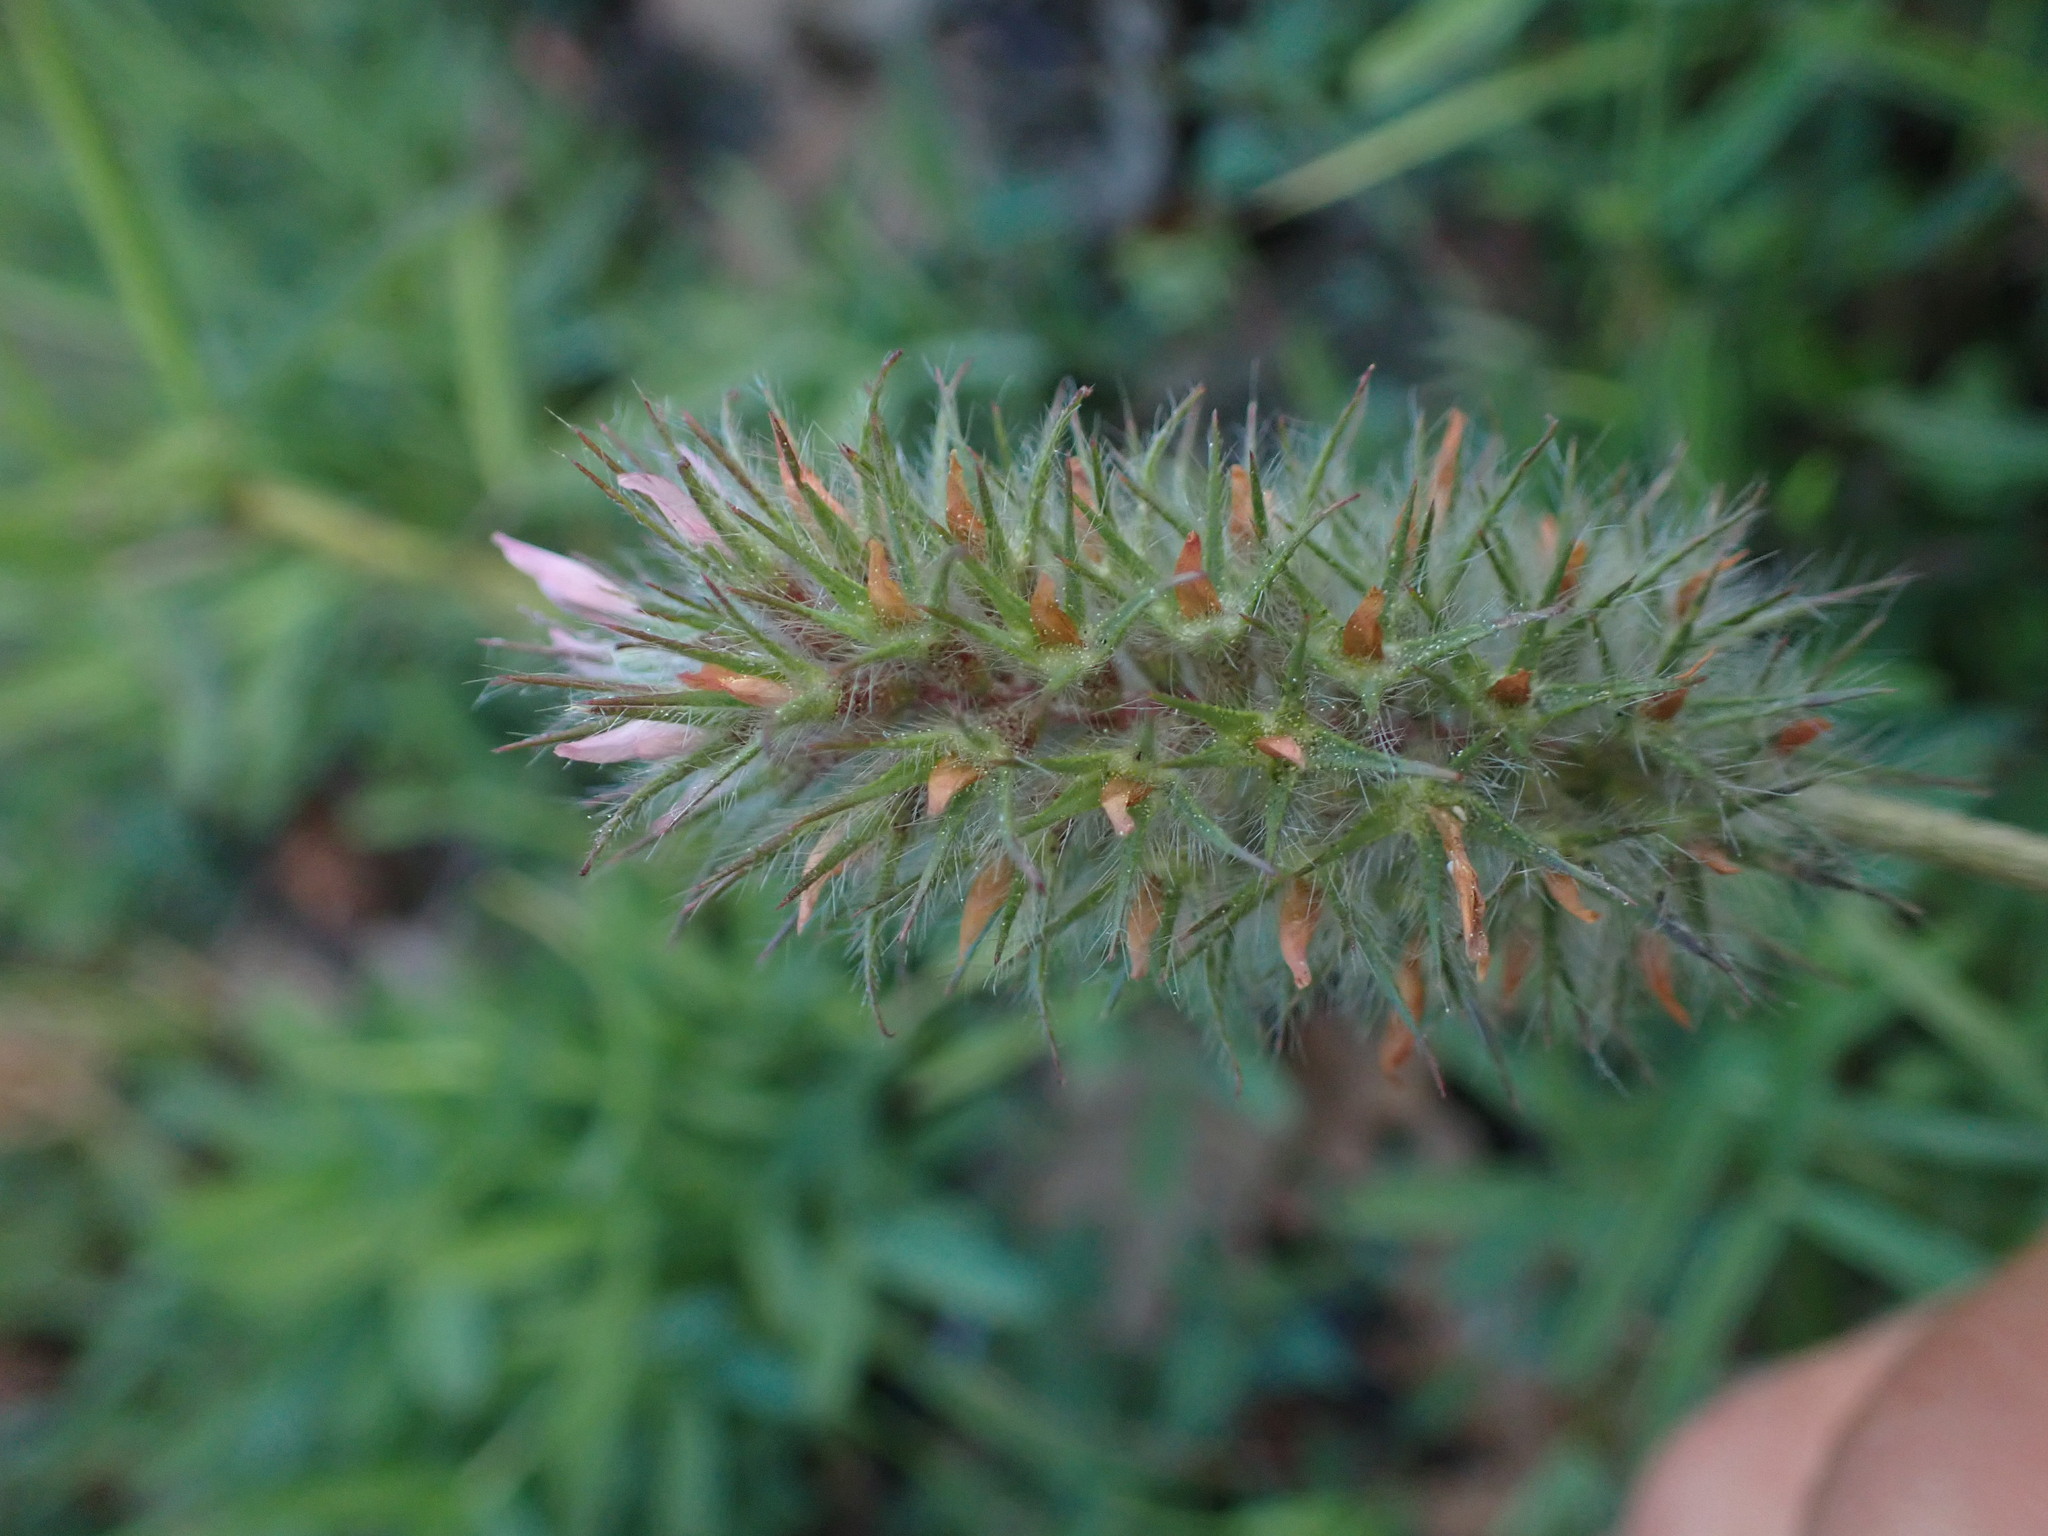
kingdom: Plantae
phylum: Tracheophyta
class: Magnoliopsida
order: Fabales
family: Fabaceae
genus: Trifolium
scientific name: Trifolium angustifolium
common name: Narrow clover
